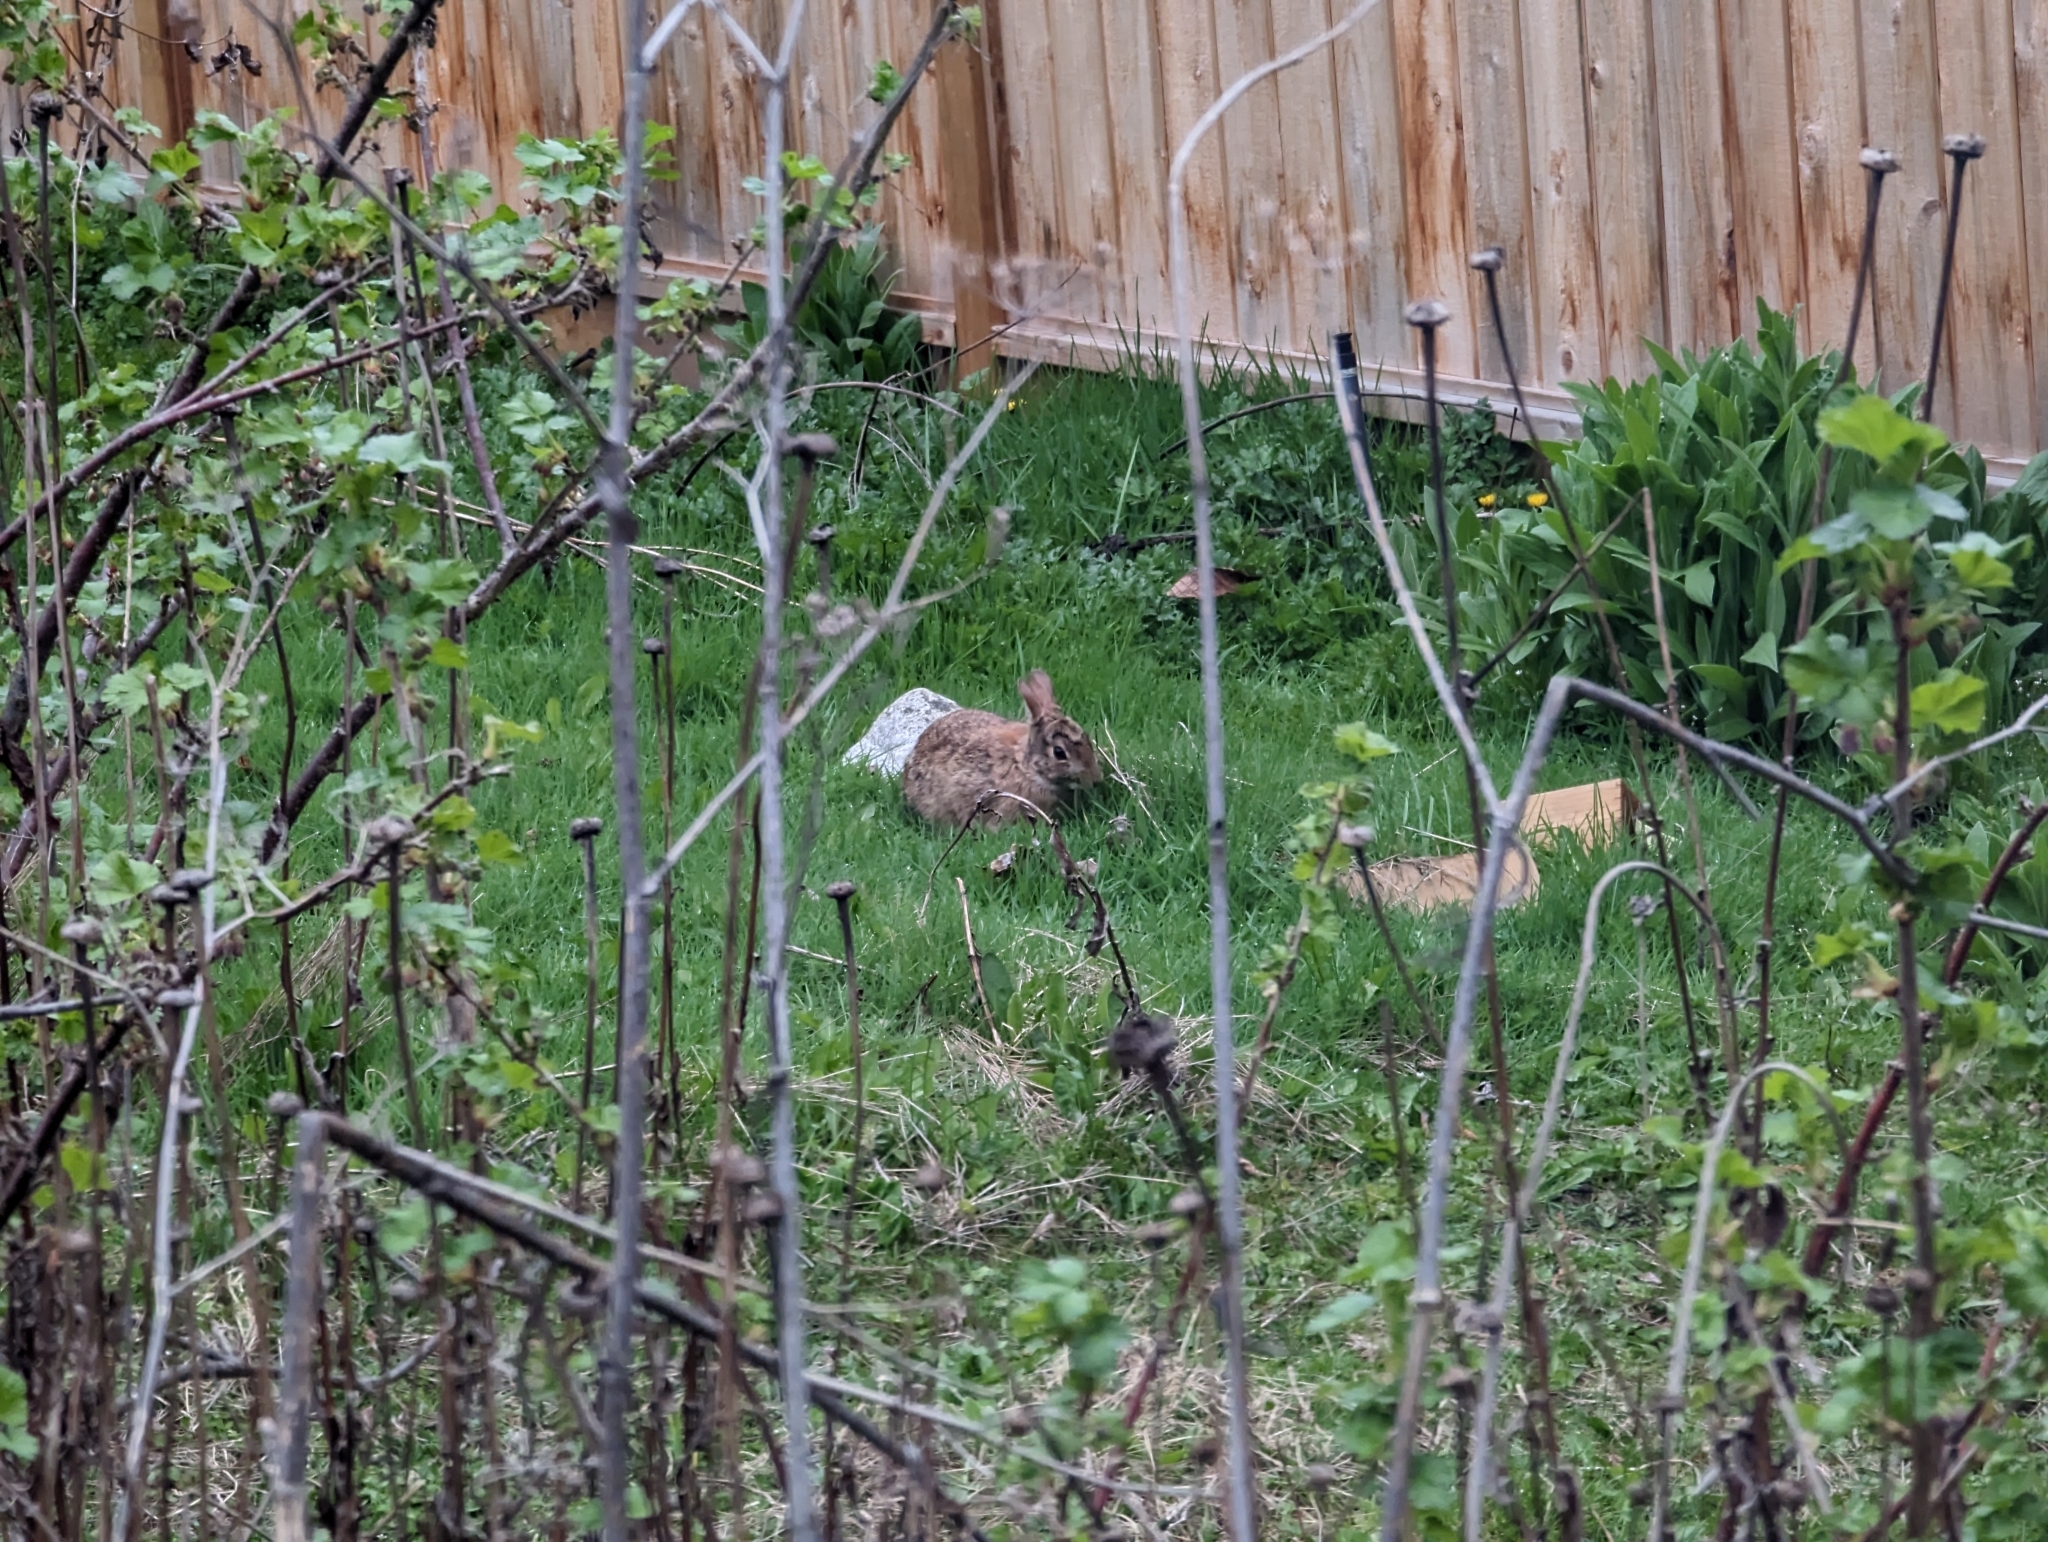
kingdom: Animalia
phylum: Chordata
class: Mammalia
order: Lagomorpha
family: Leporidae
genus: Sylvilagus
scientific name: Sylvilagus floridanus
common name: Eastern cottontail
